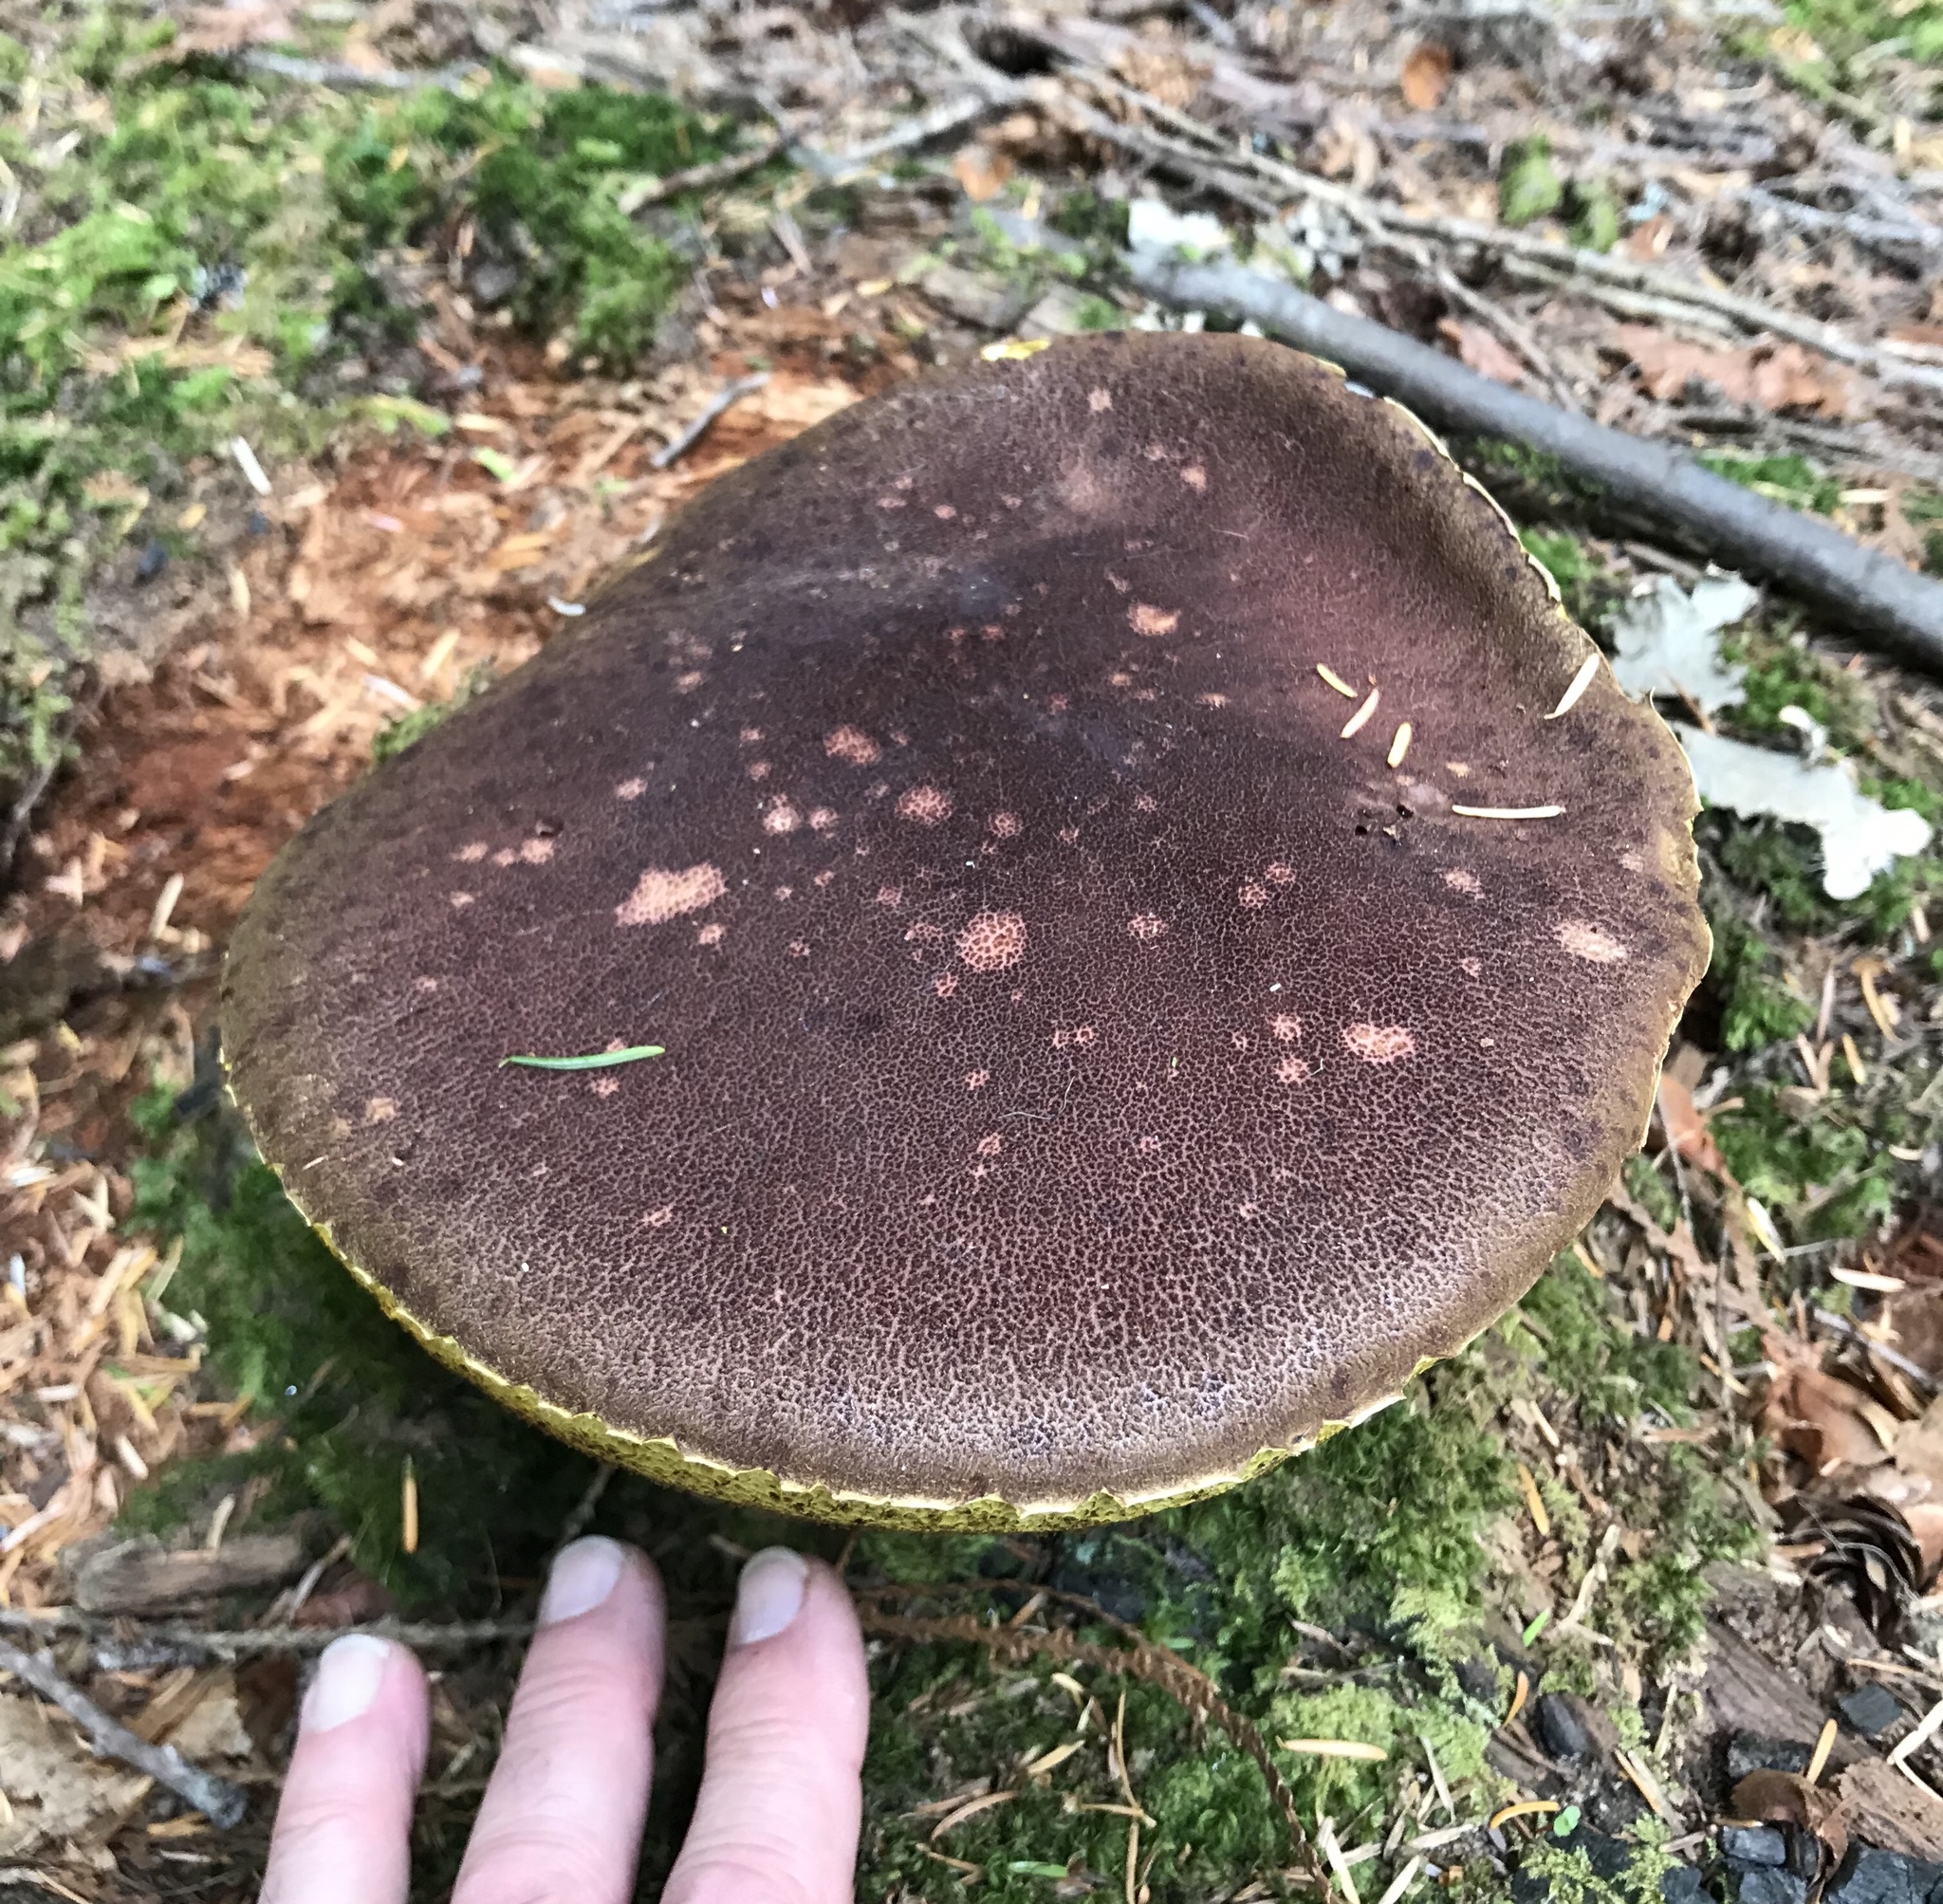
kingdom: Fungi
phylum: Basidiomycota
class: Agaricomycetes
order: Boletales
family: Boletaceae
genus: Aureoboletus
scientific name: Aureoboletus mirabilis
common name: Admirable bolete
